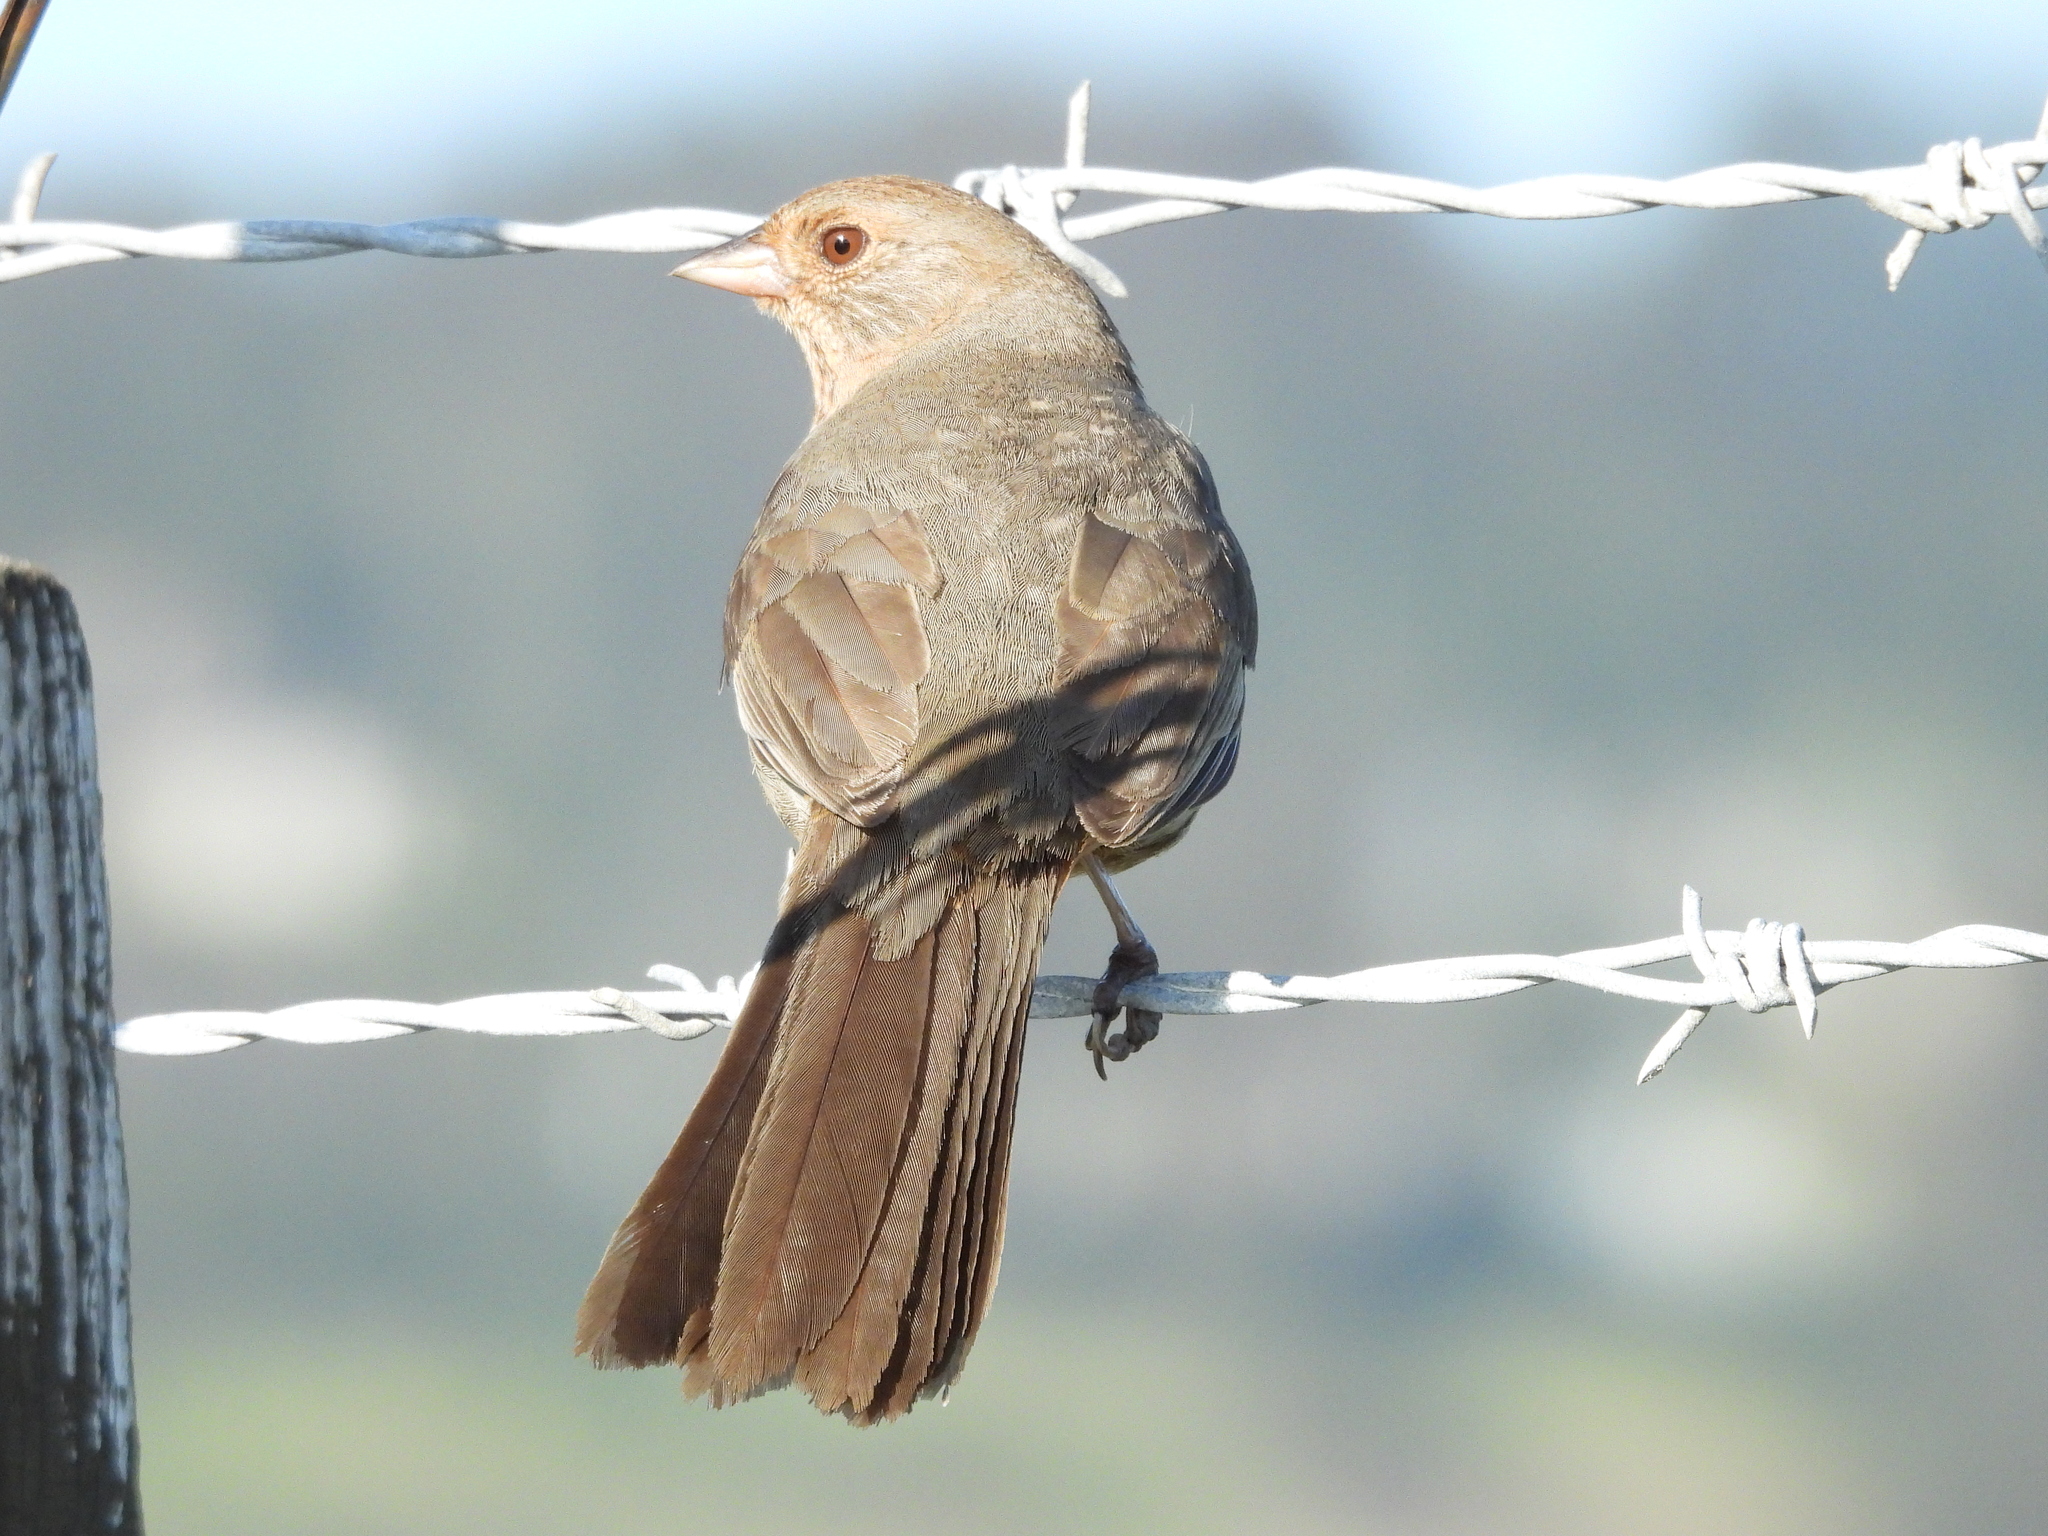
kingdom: Animalia
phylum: Chordata
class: Aves
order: Passeriformes
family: Passerellidae
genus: Melozone
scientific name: Melozone crissalis
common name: California towhee
